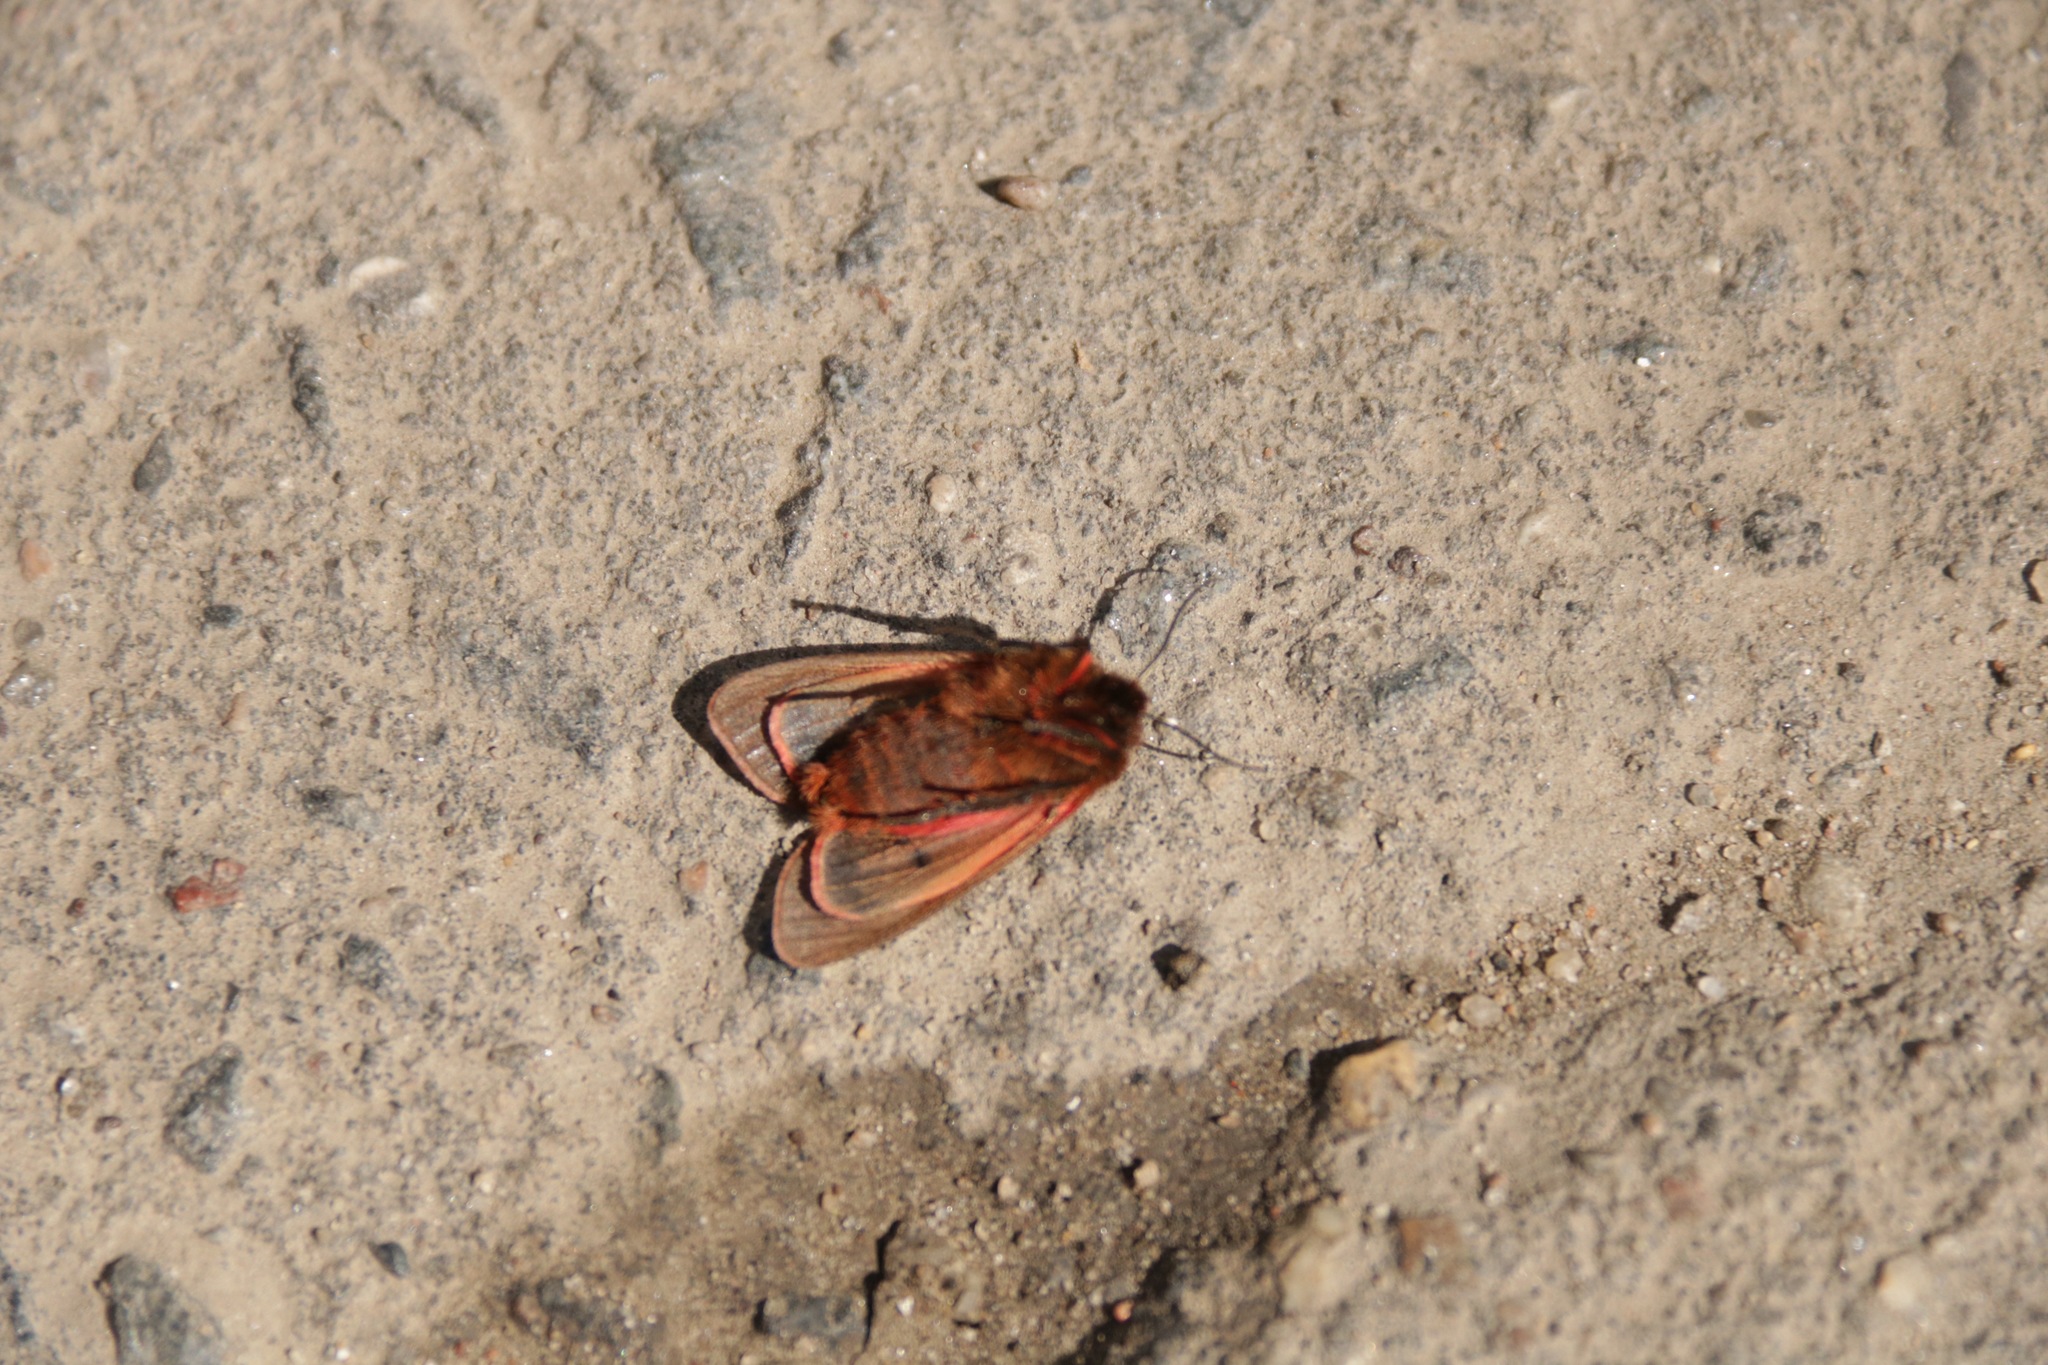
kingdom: Animalia
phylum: Arthropoda
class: Insecta
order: Lepidoptera
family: Erebidae
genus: Phragmatobia
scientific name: Phragmatobia fuliginosa
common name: Ruby tiger
